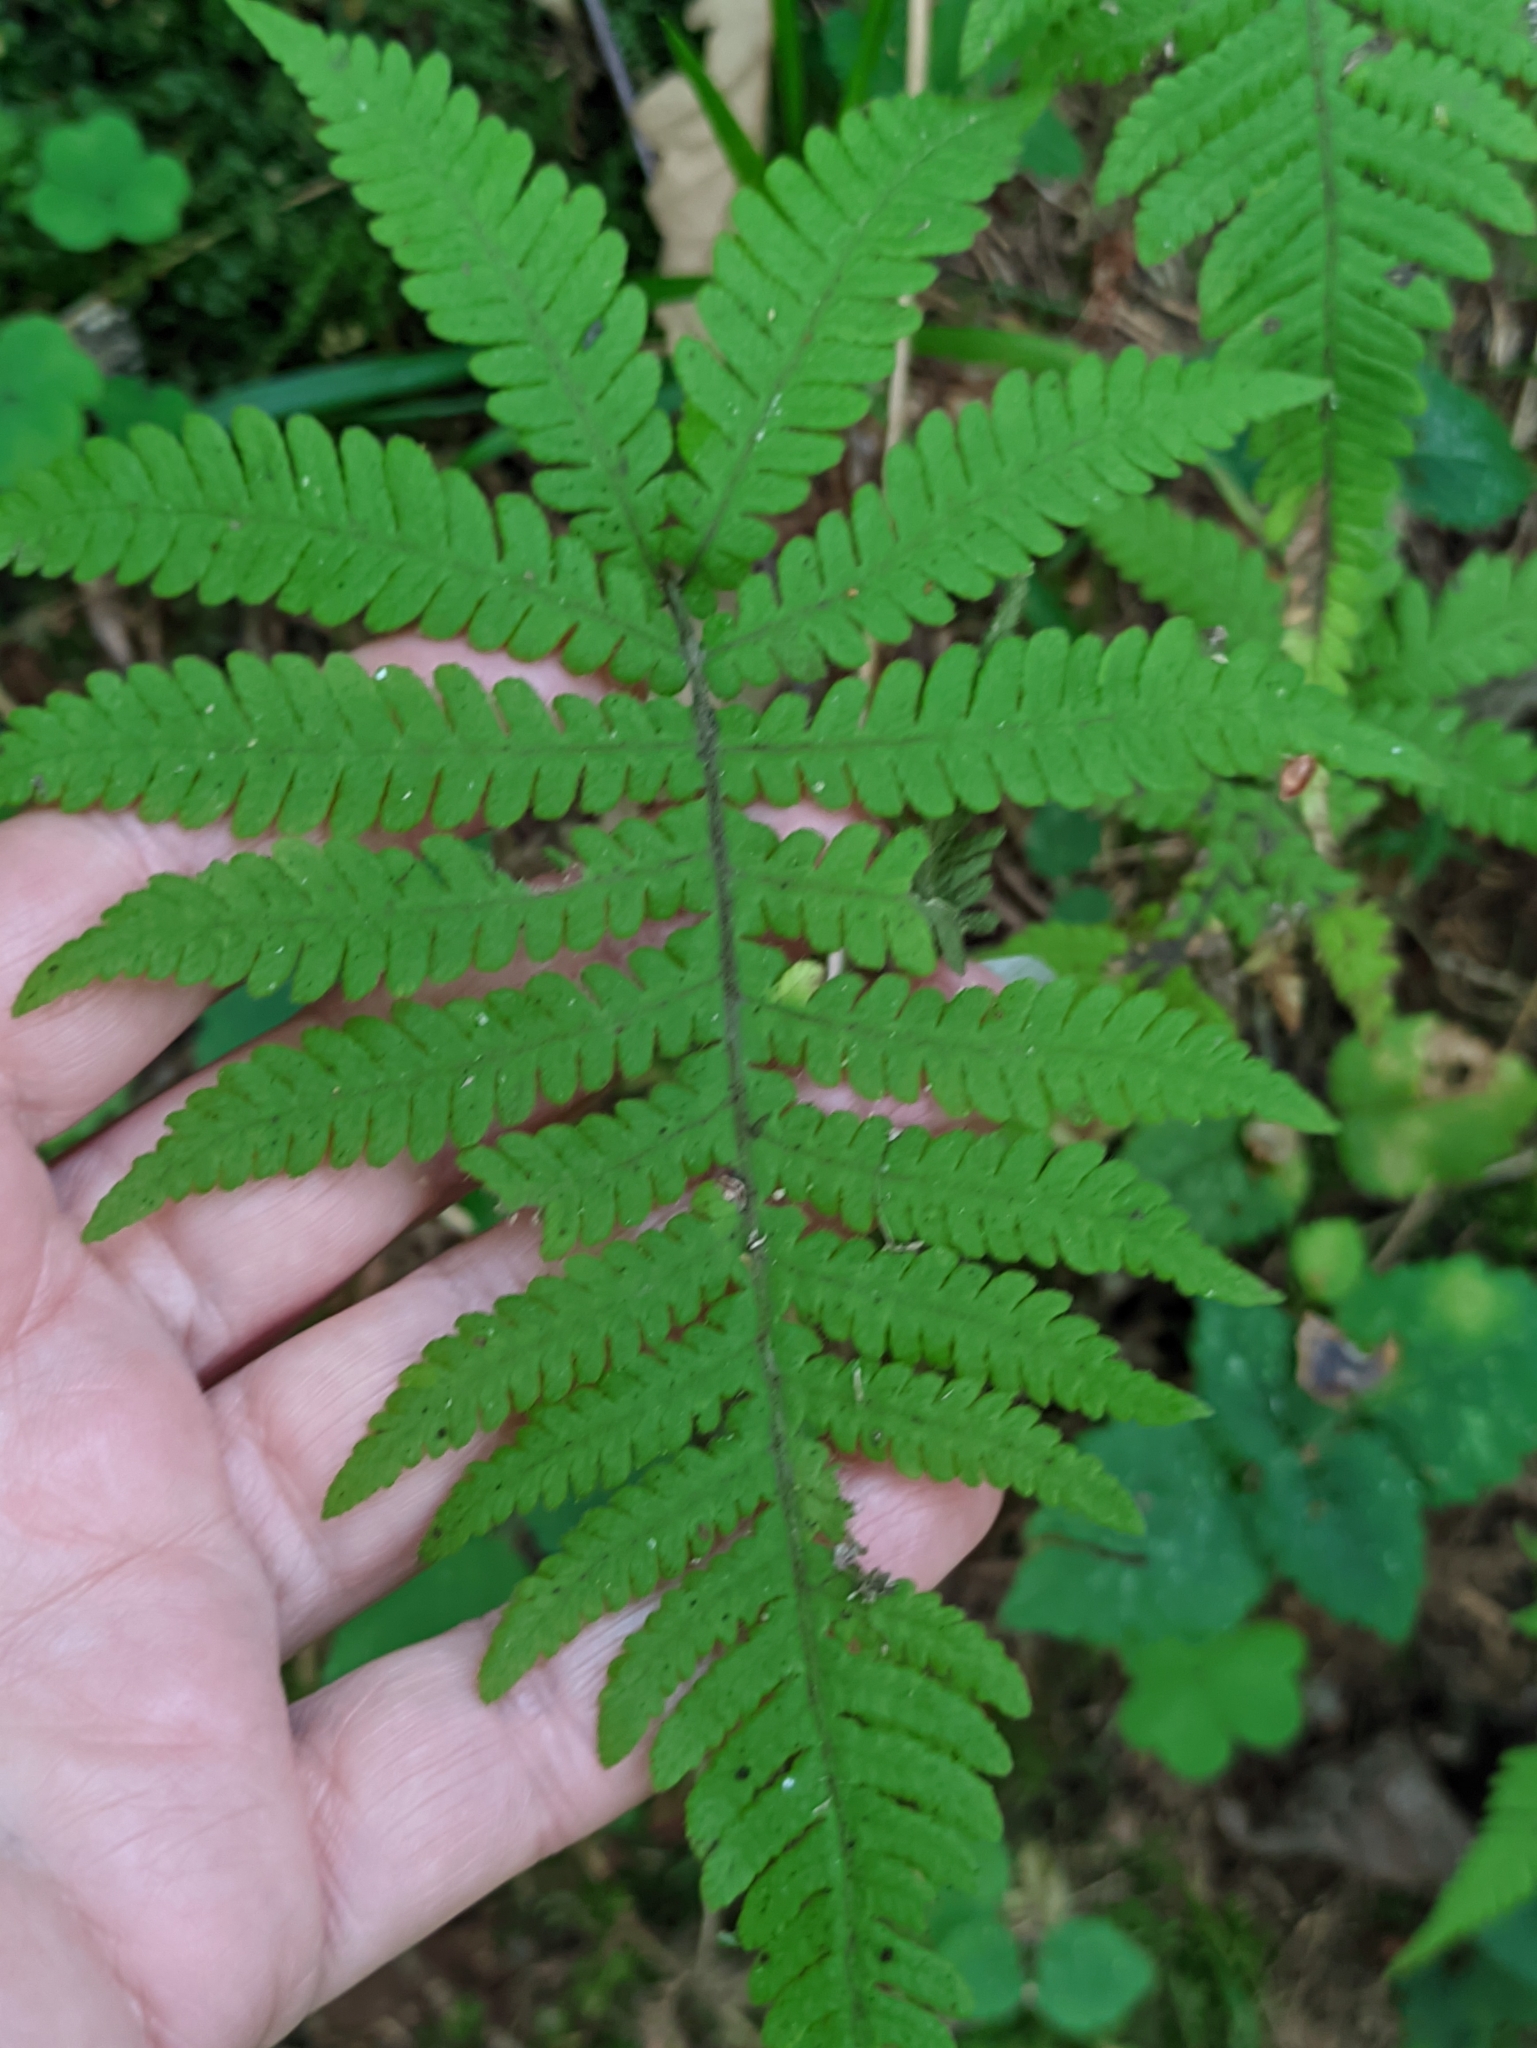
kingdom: Plantae
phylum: Tracheophyta
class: Polypodiopsida
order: Polypodiales
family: Thelypteridaceae
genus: Phegopteris
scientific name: Phegopteris connectilis
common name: Beech fern
